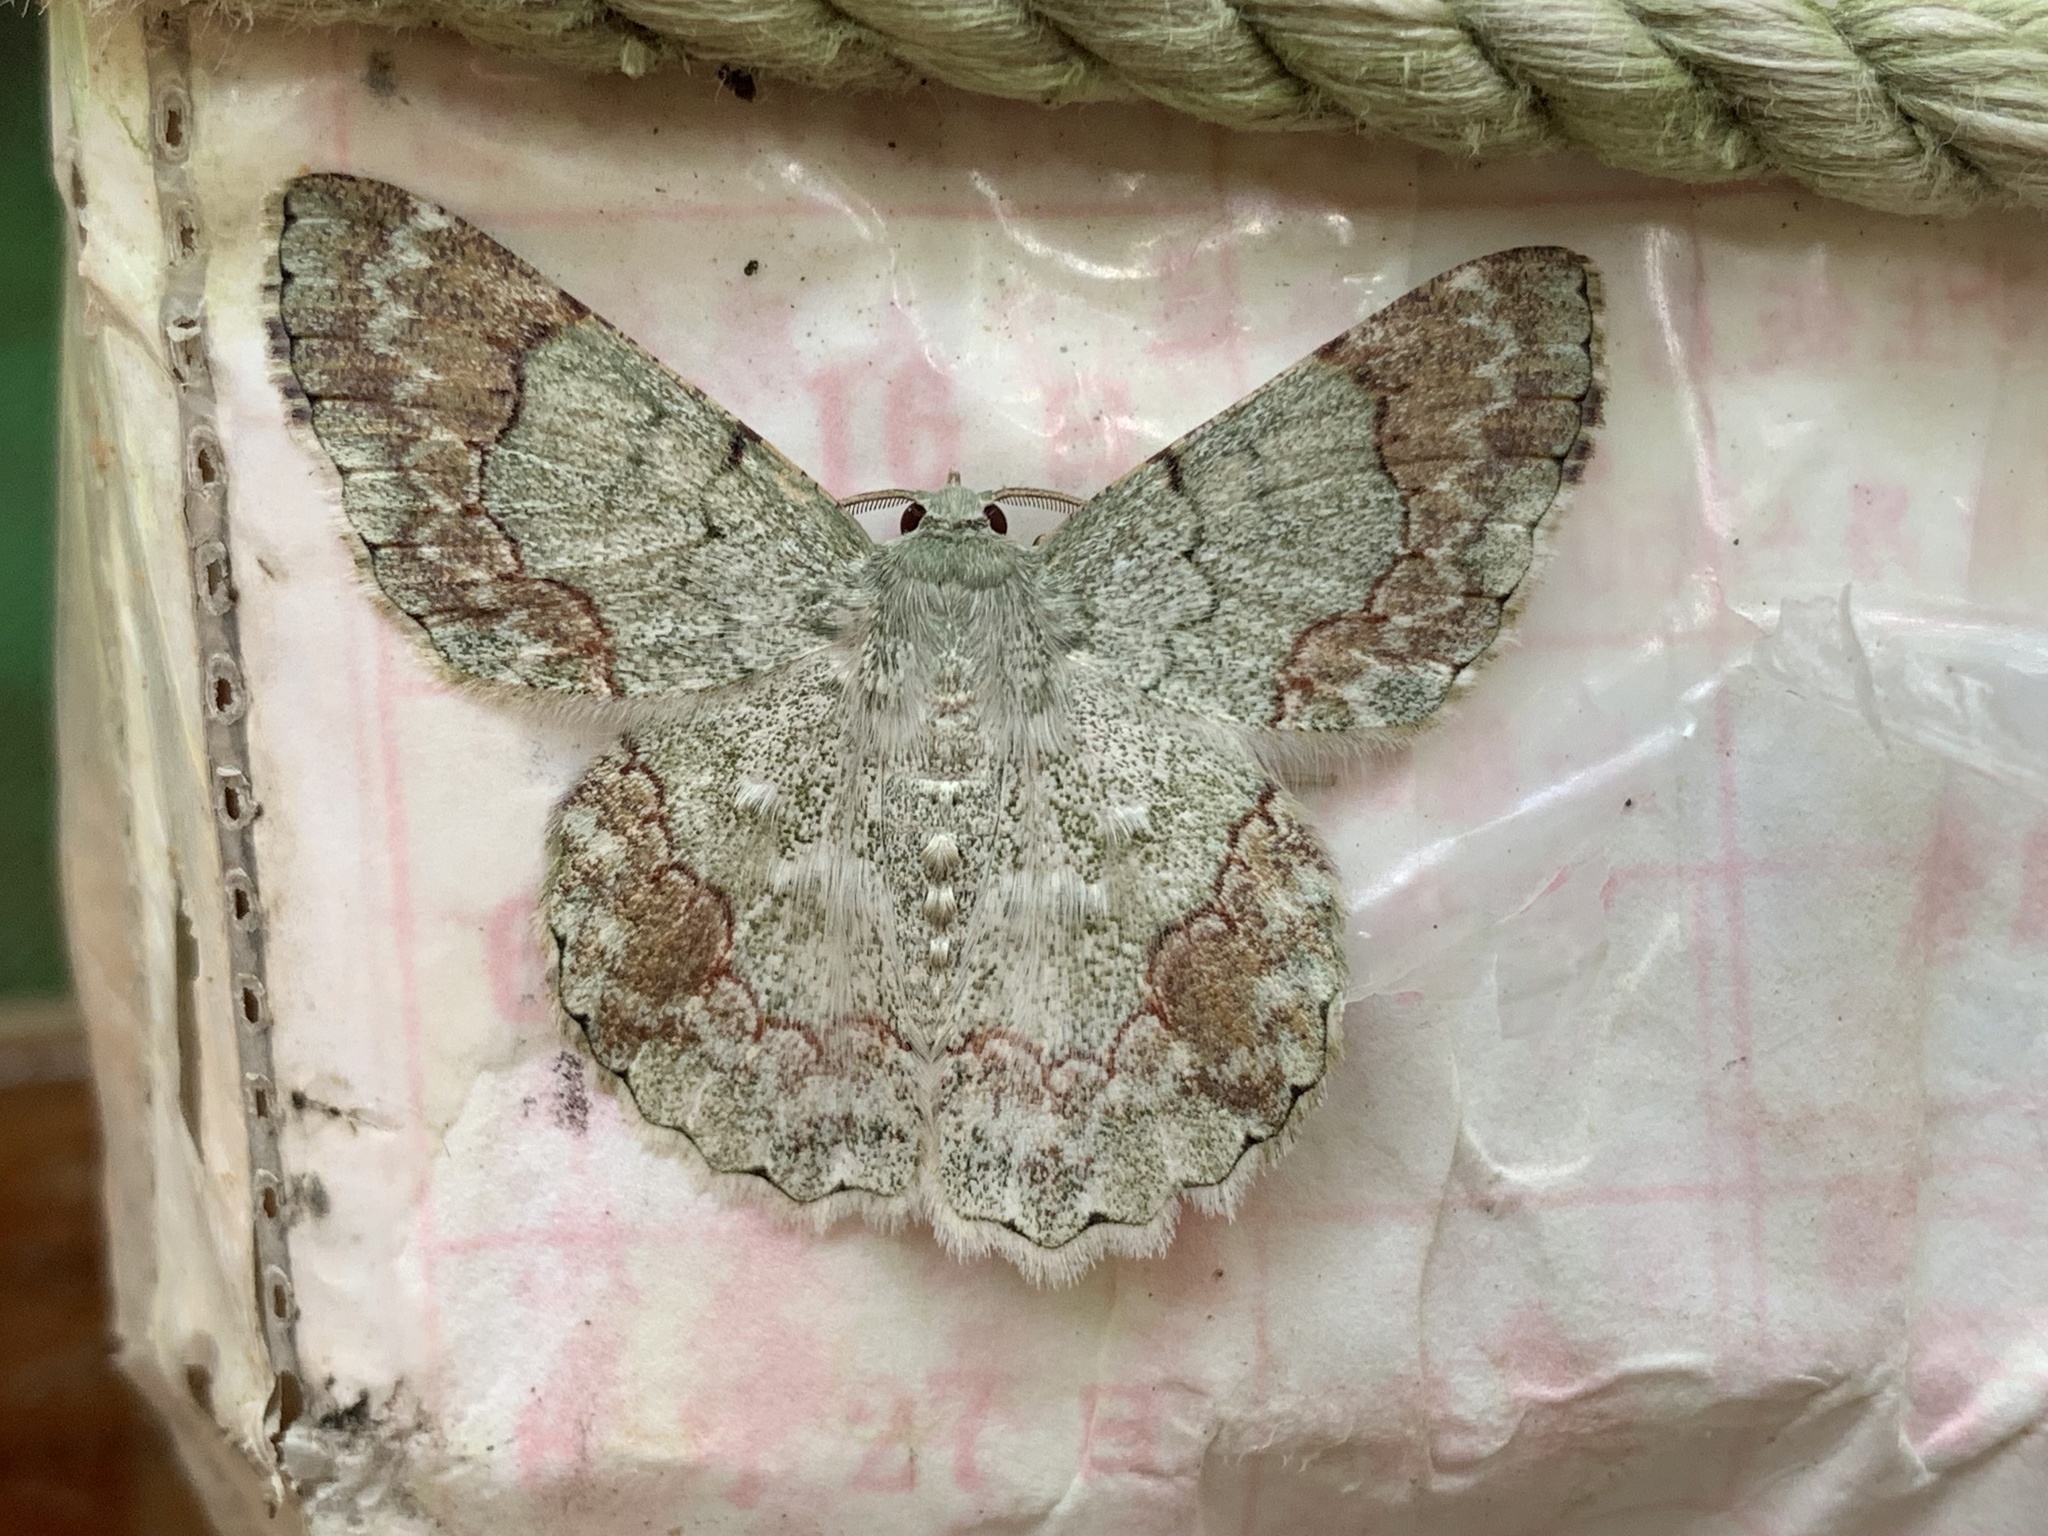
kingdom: Animalia
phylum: Arthropoda
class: Insecta
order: Lepidoptera
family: Geometridae
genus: Pingasa
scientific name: Pingasa ruginaria
